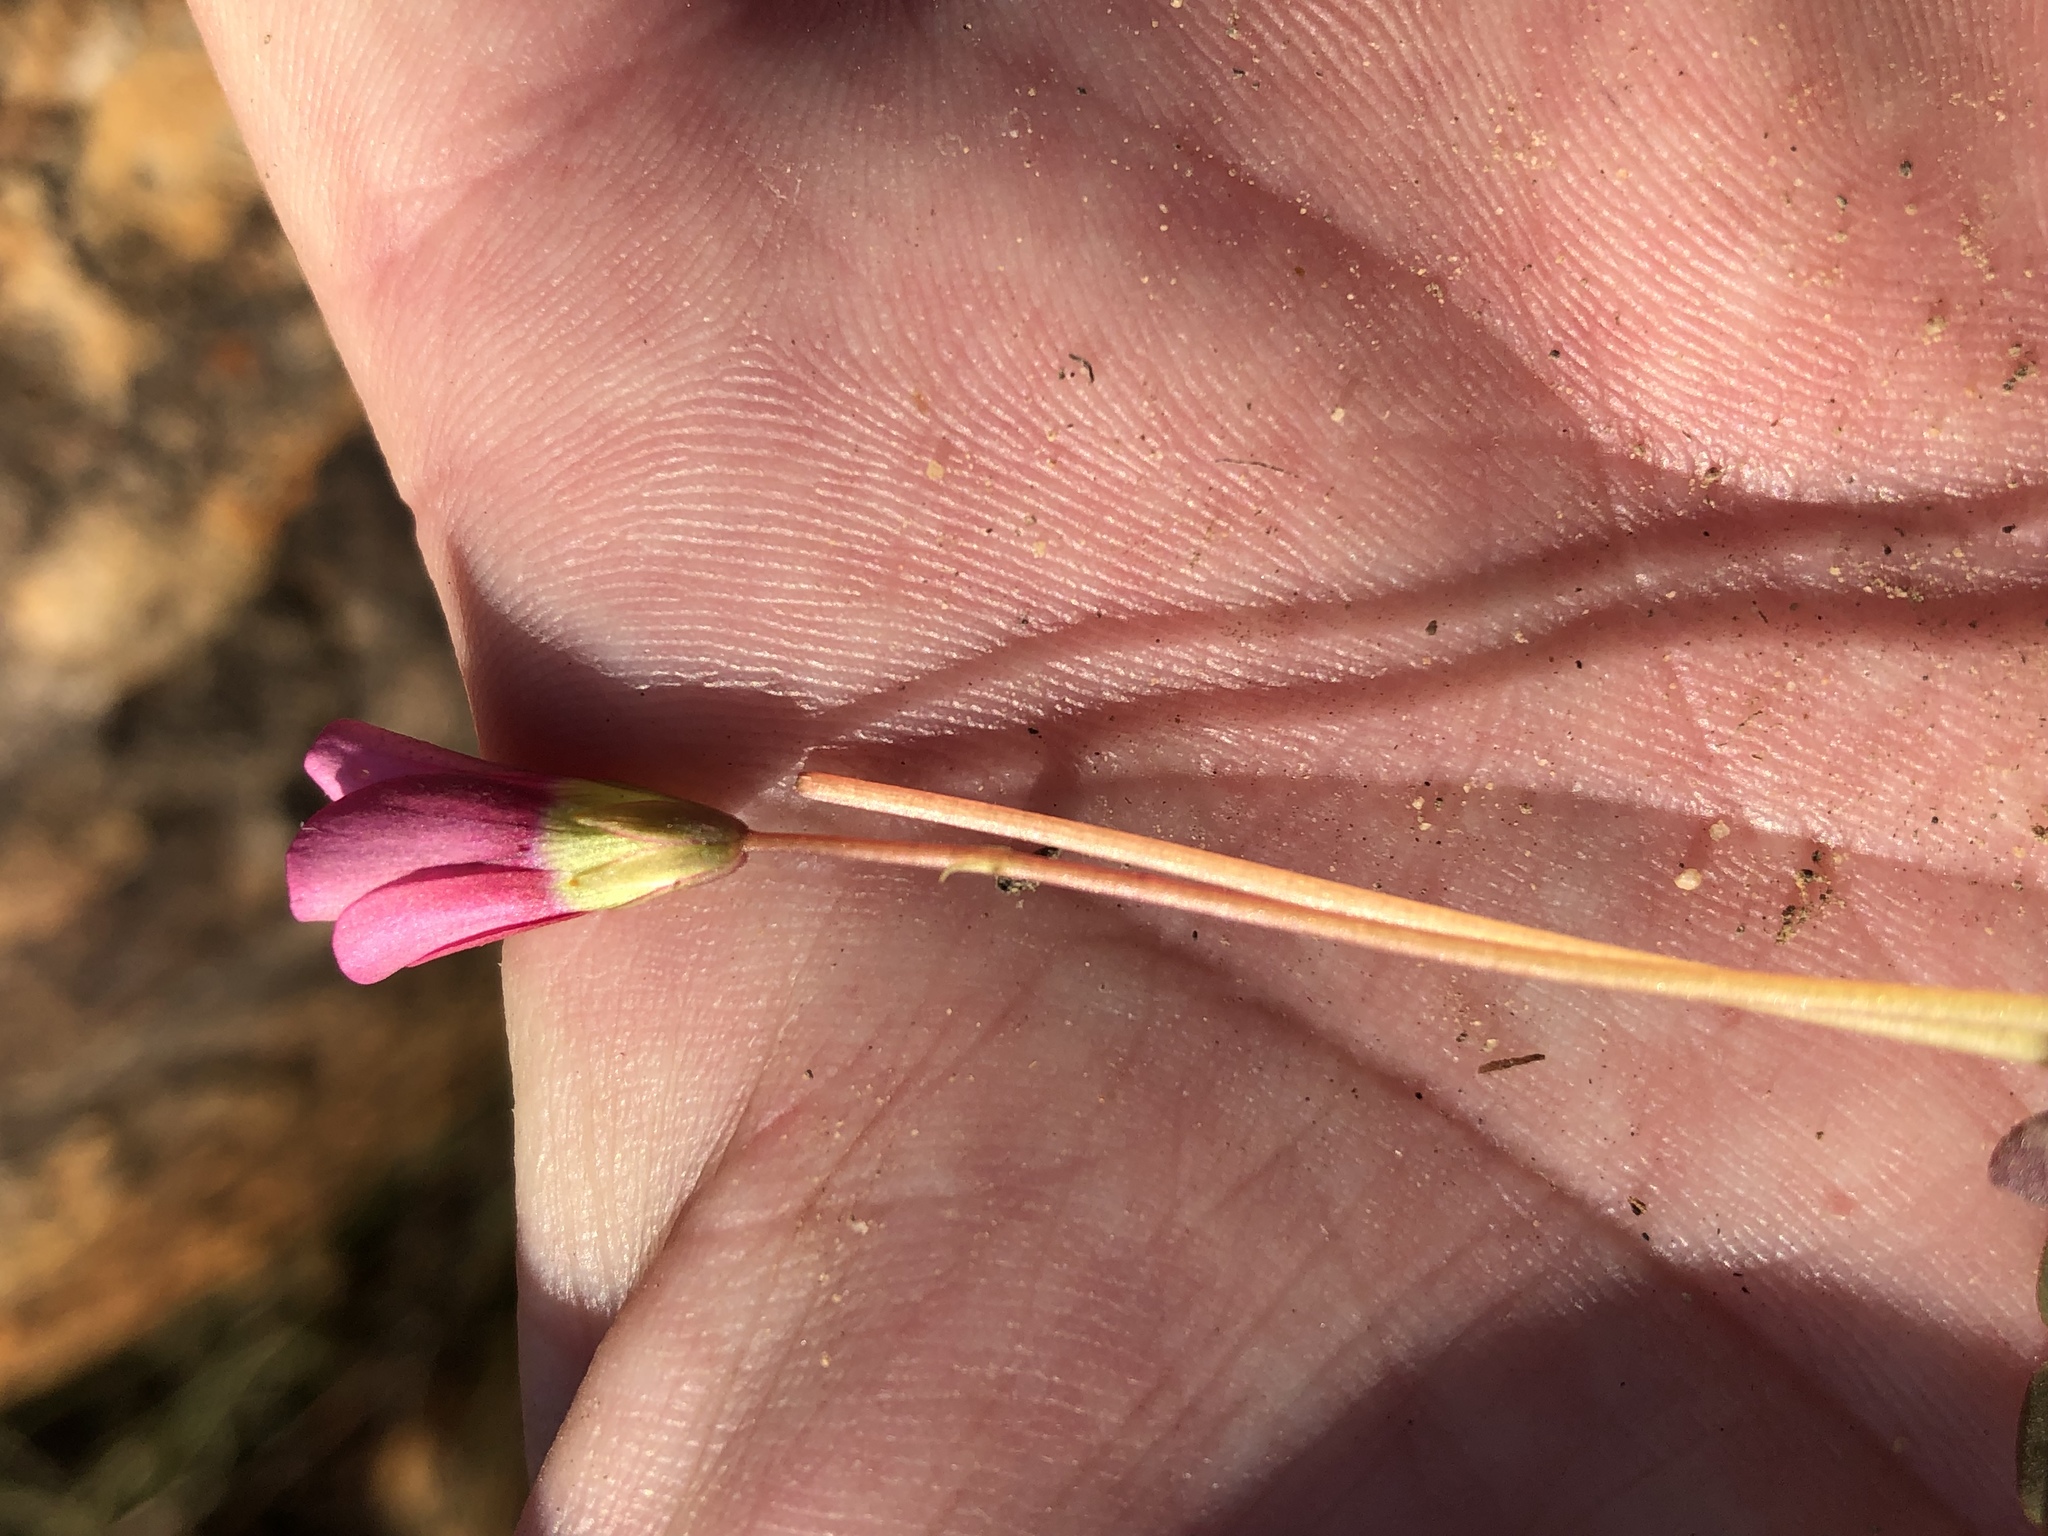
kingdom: Plantae
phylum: Tracheophyta
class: Magnoliopsida
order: Oxalidales
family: Oxalidaceae
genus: Oxalis
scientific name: Oxalis commutata
